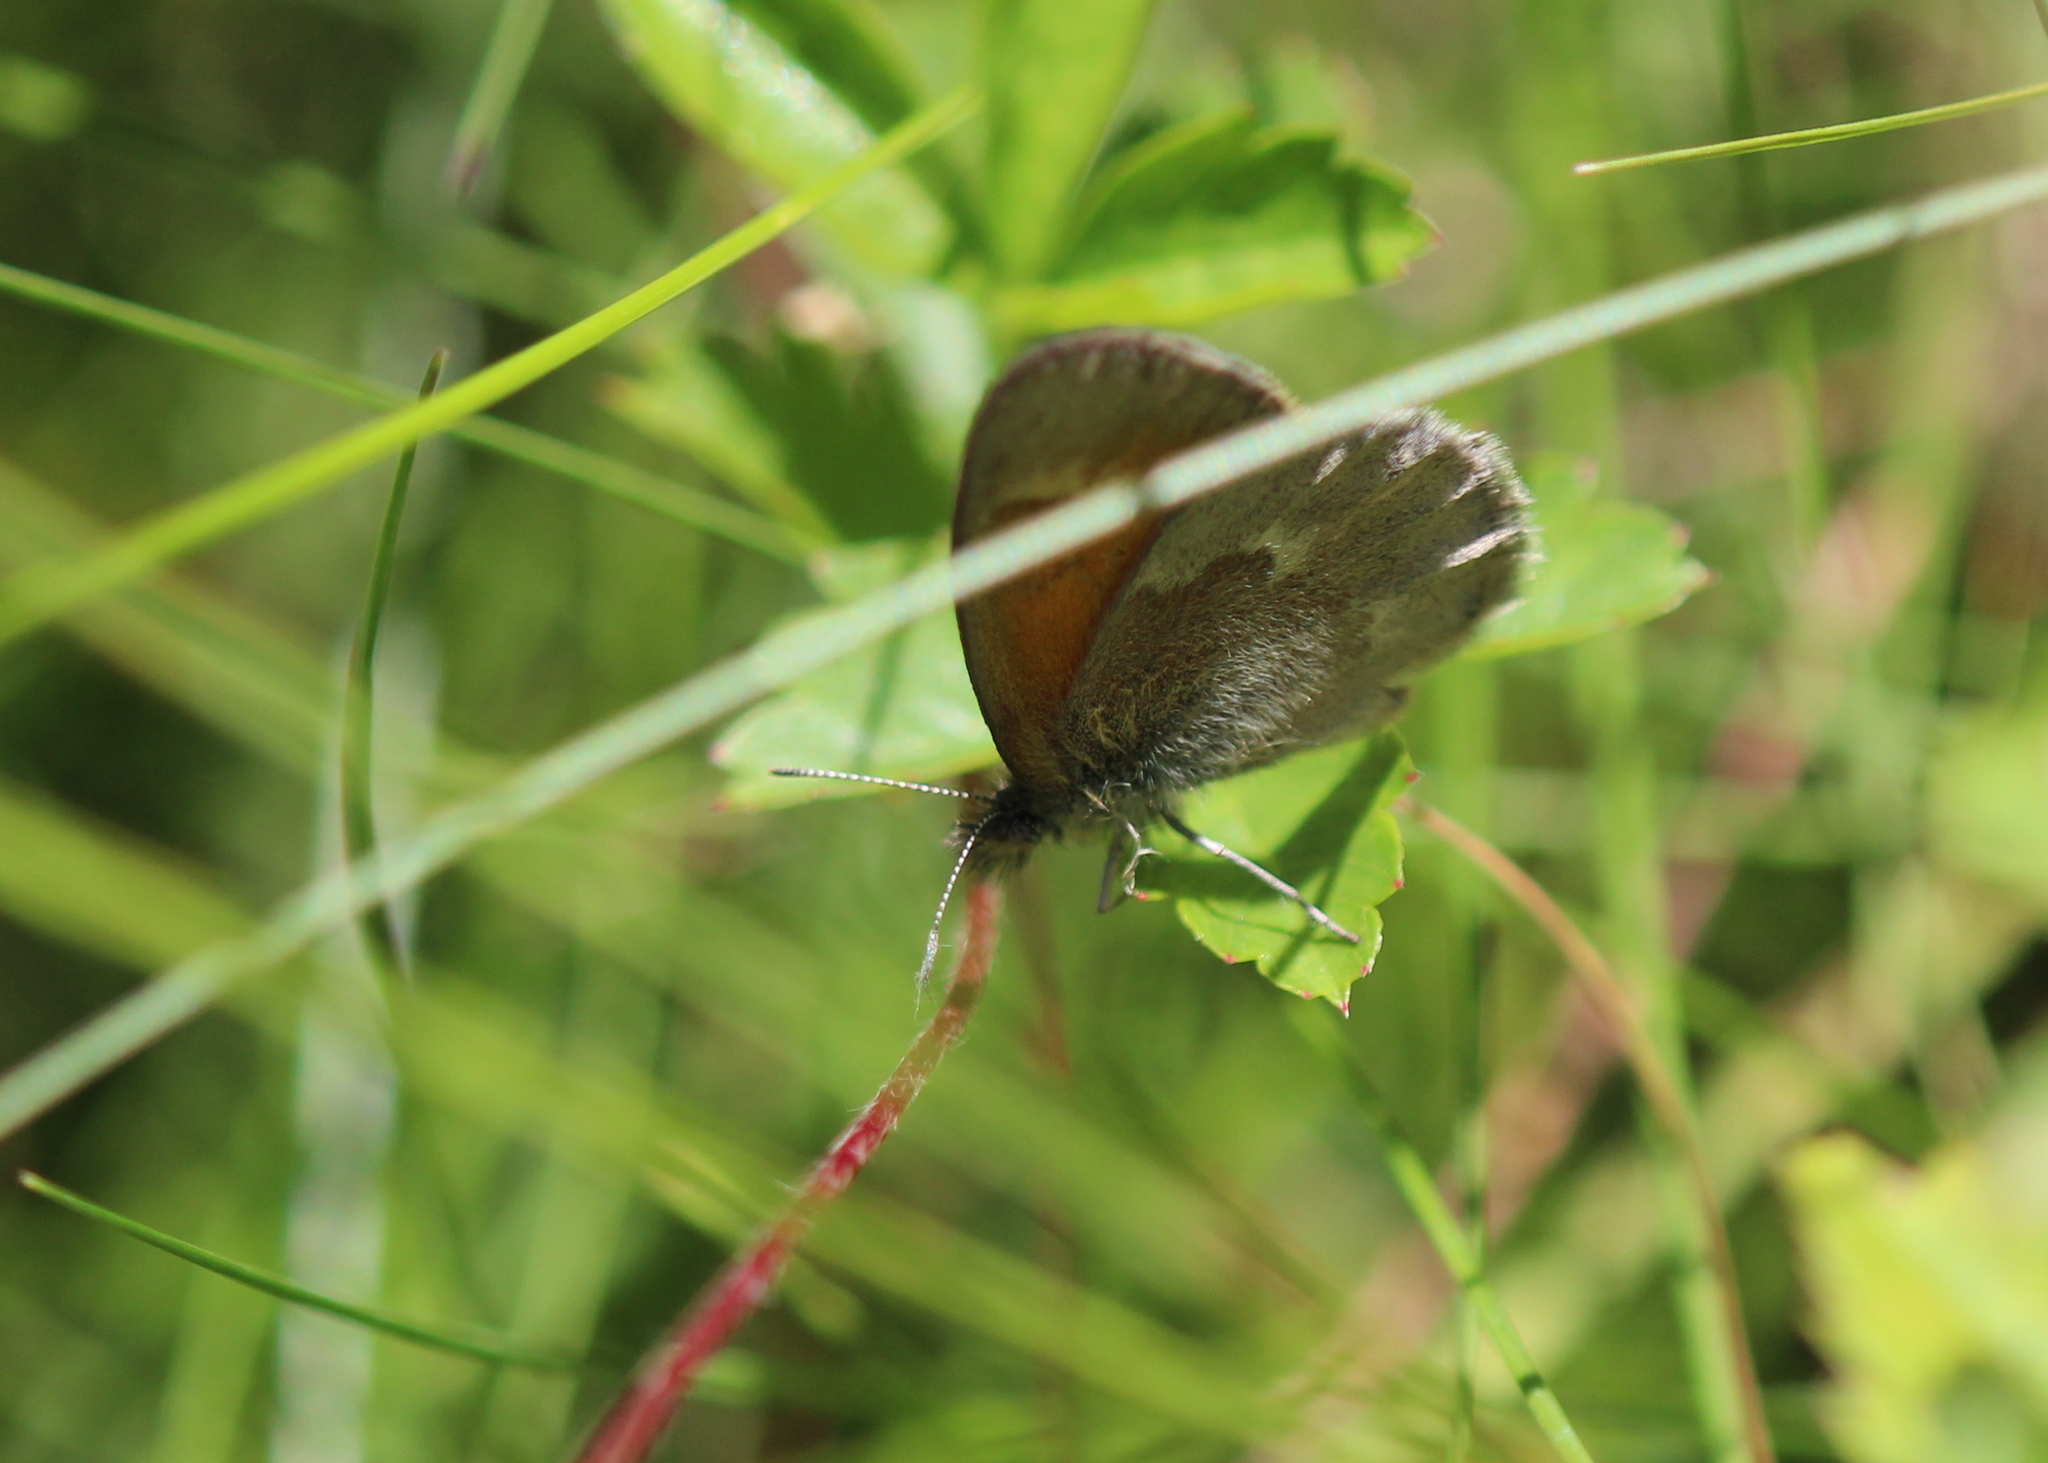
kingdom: Animalia
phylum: Arthropoda
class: Insecta
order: Lepidoptera
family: Nymphalidae
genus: Coenonympha
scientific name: Coenonympha california
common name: Common ringlet
